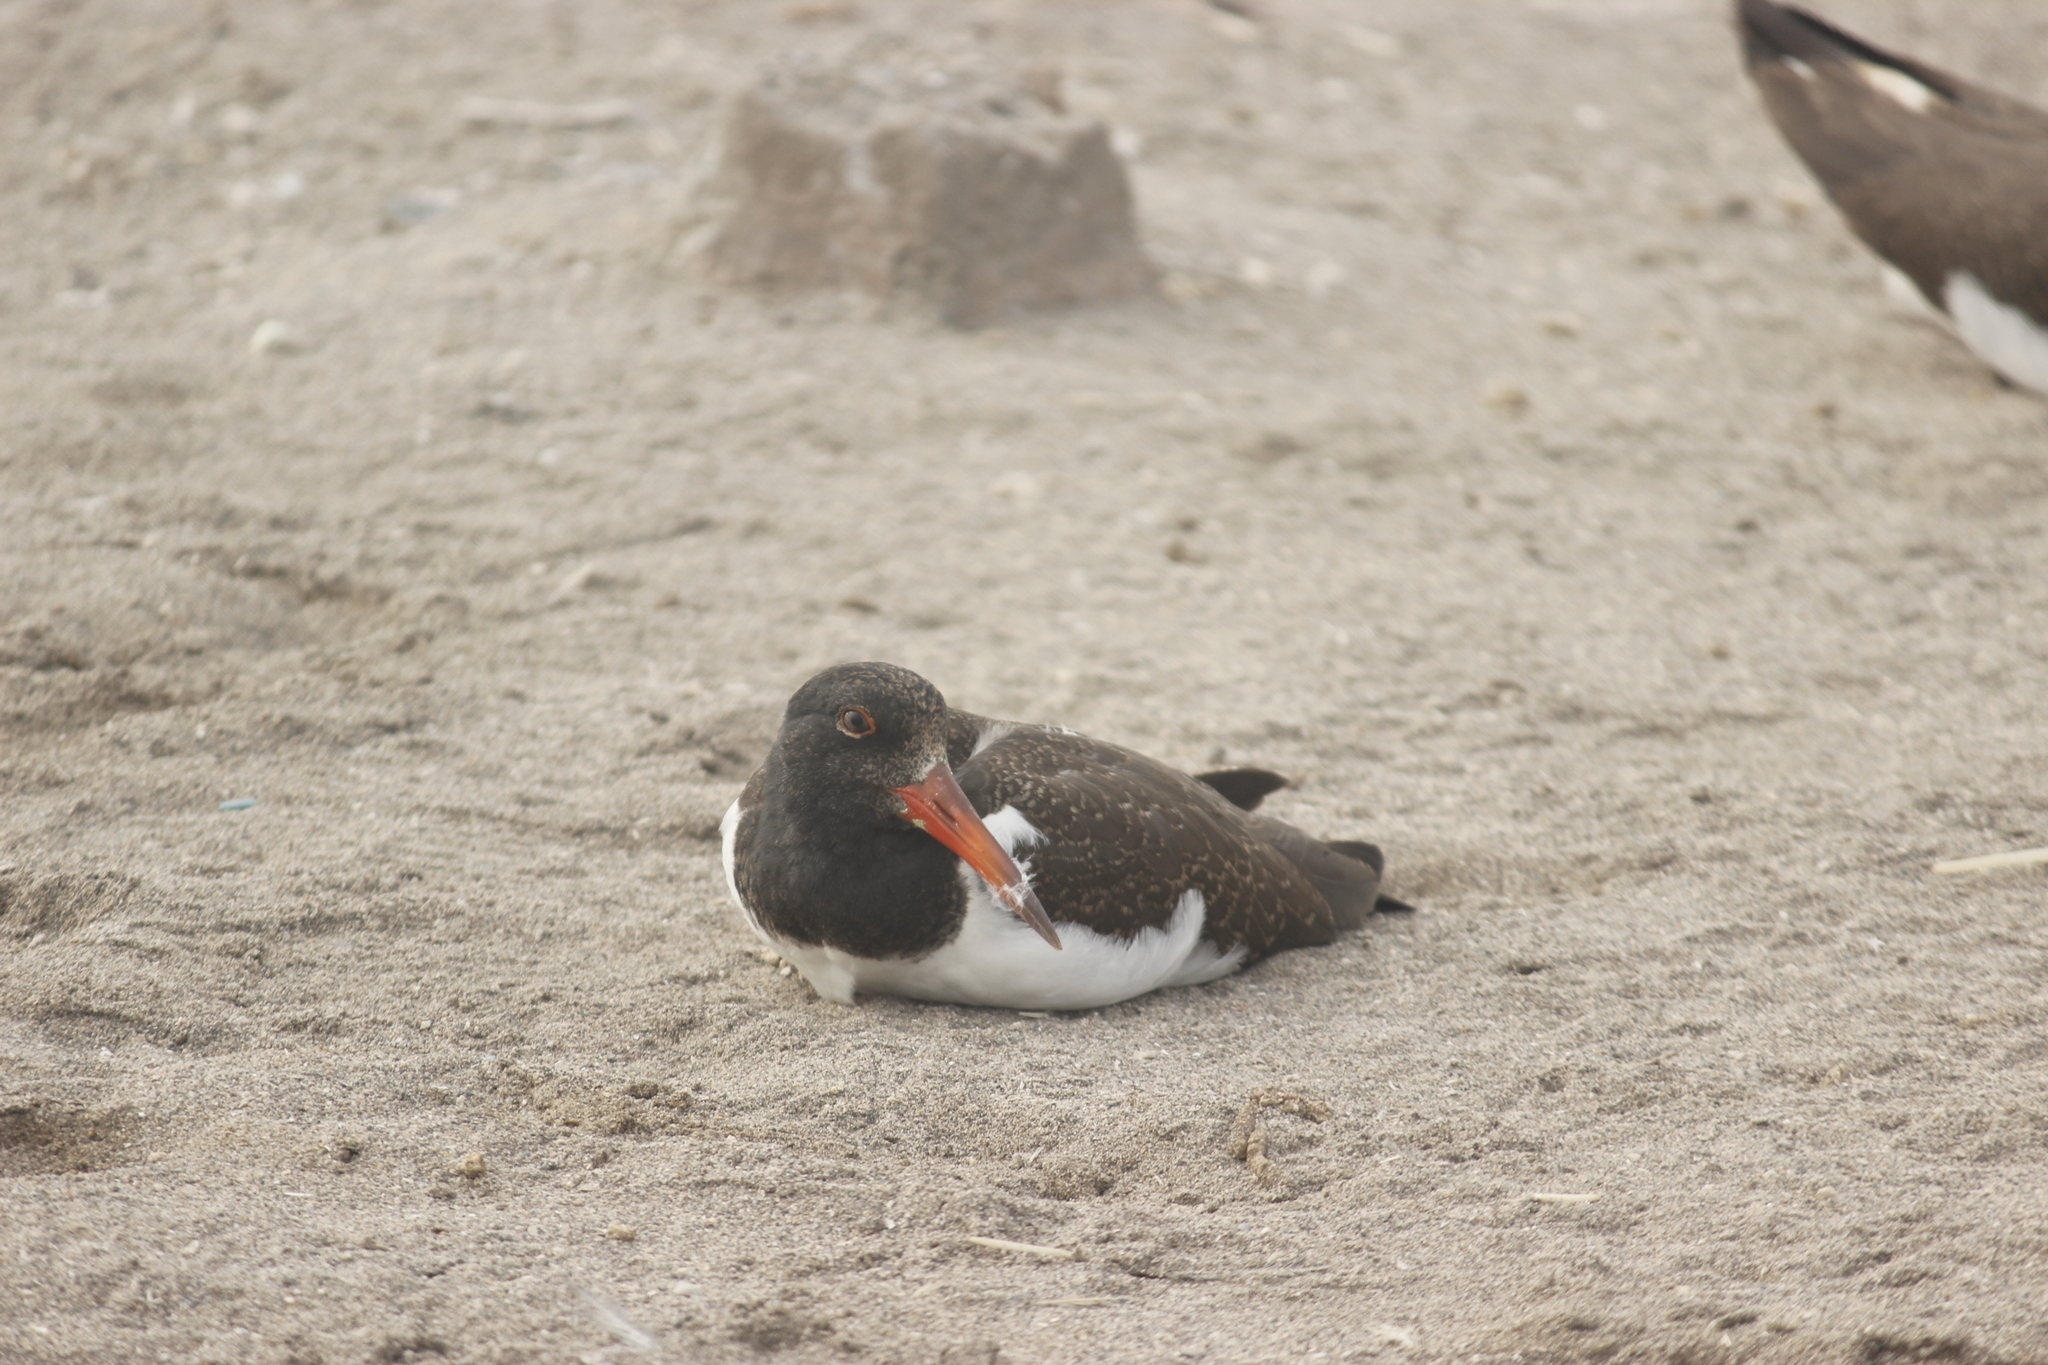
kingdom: Animalia
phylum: Chordata
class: Aves
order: Charadriiformes
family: Haematopodidae
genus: Haematopus
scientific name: Haematopus palliatus
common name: American oystercatcher
